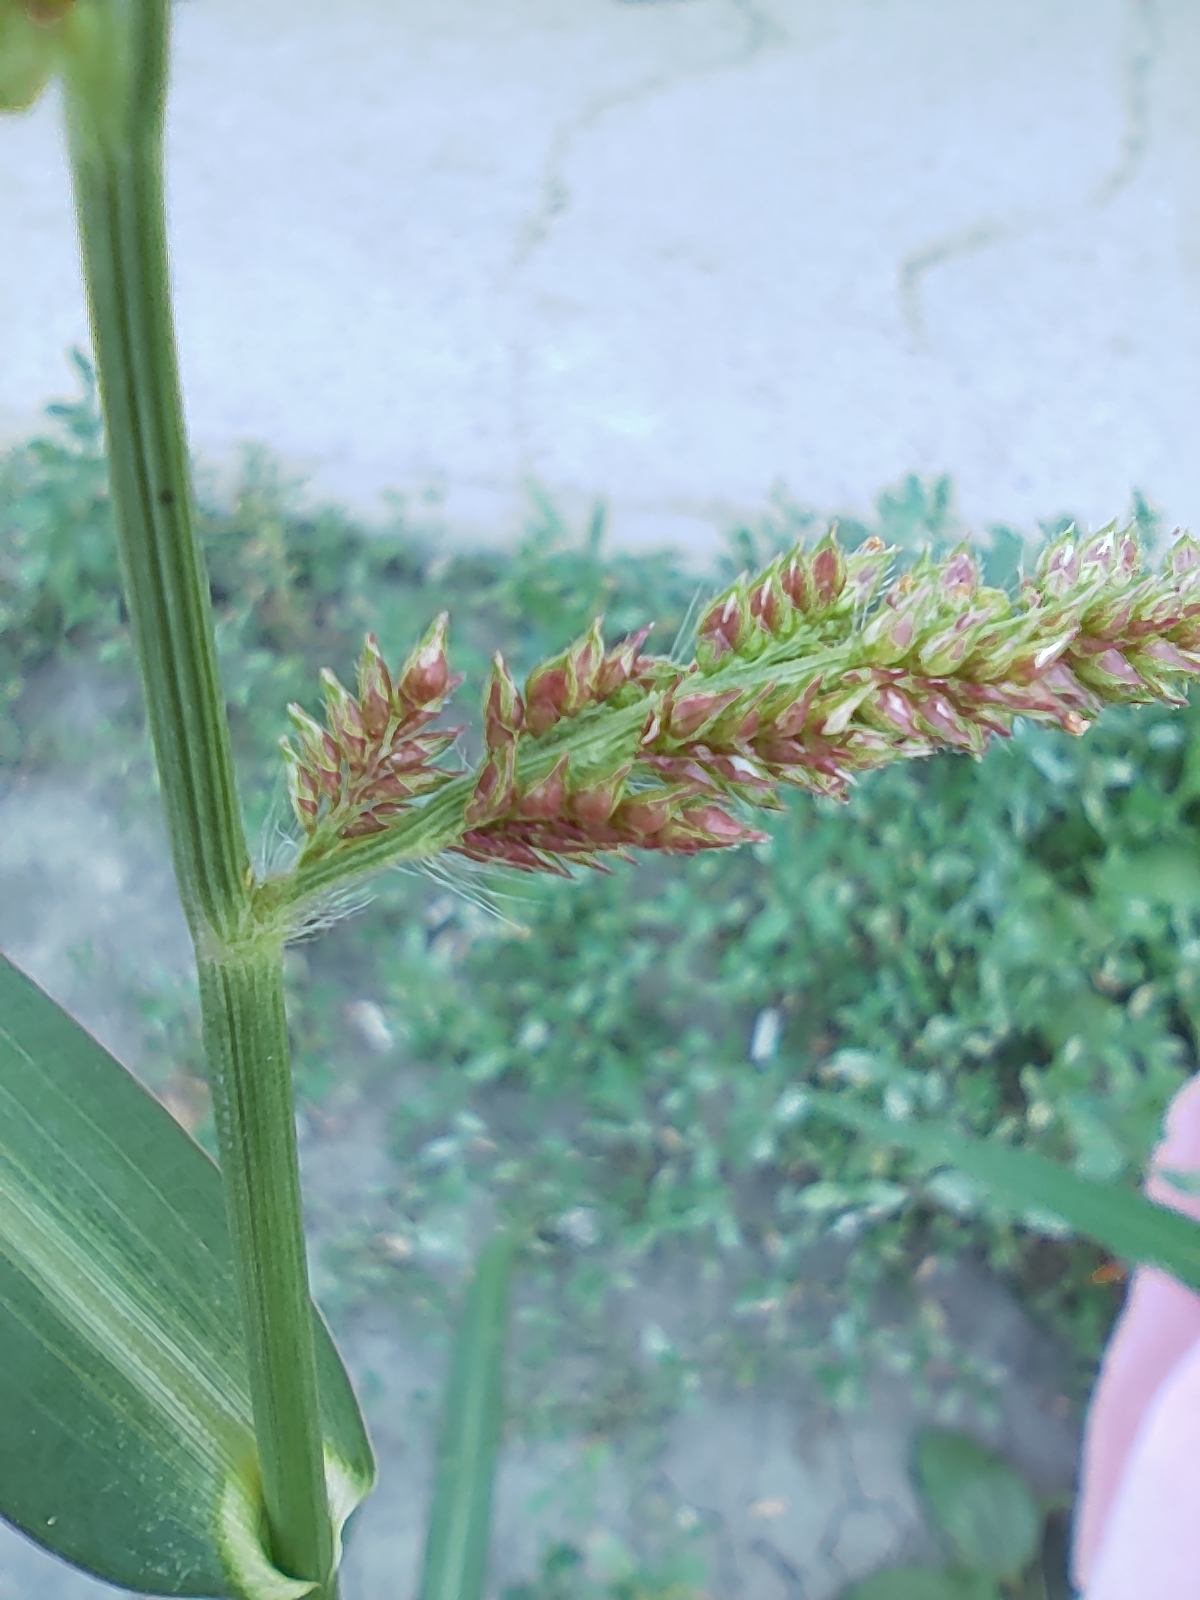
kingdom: Plantae
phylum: Tracheophyta
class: Liliopsida
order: Poales
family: Poaceae
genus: Echinochloa
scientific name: Echinochloa crus-galli
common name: Cockspur
